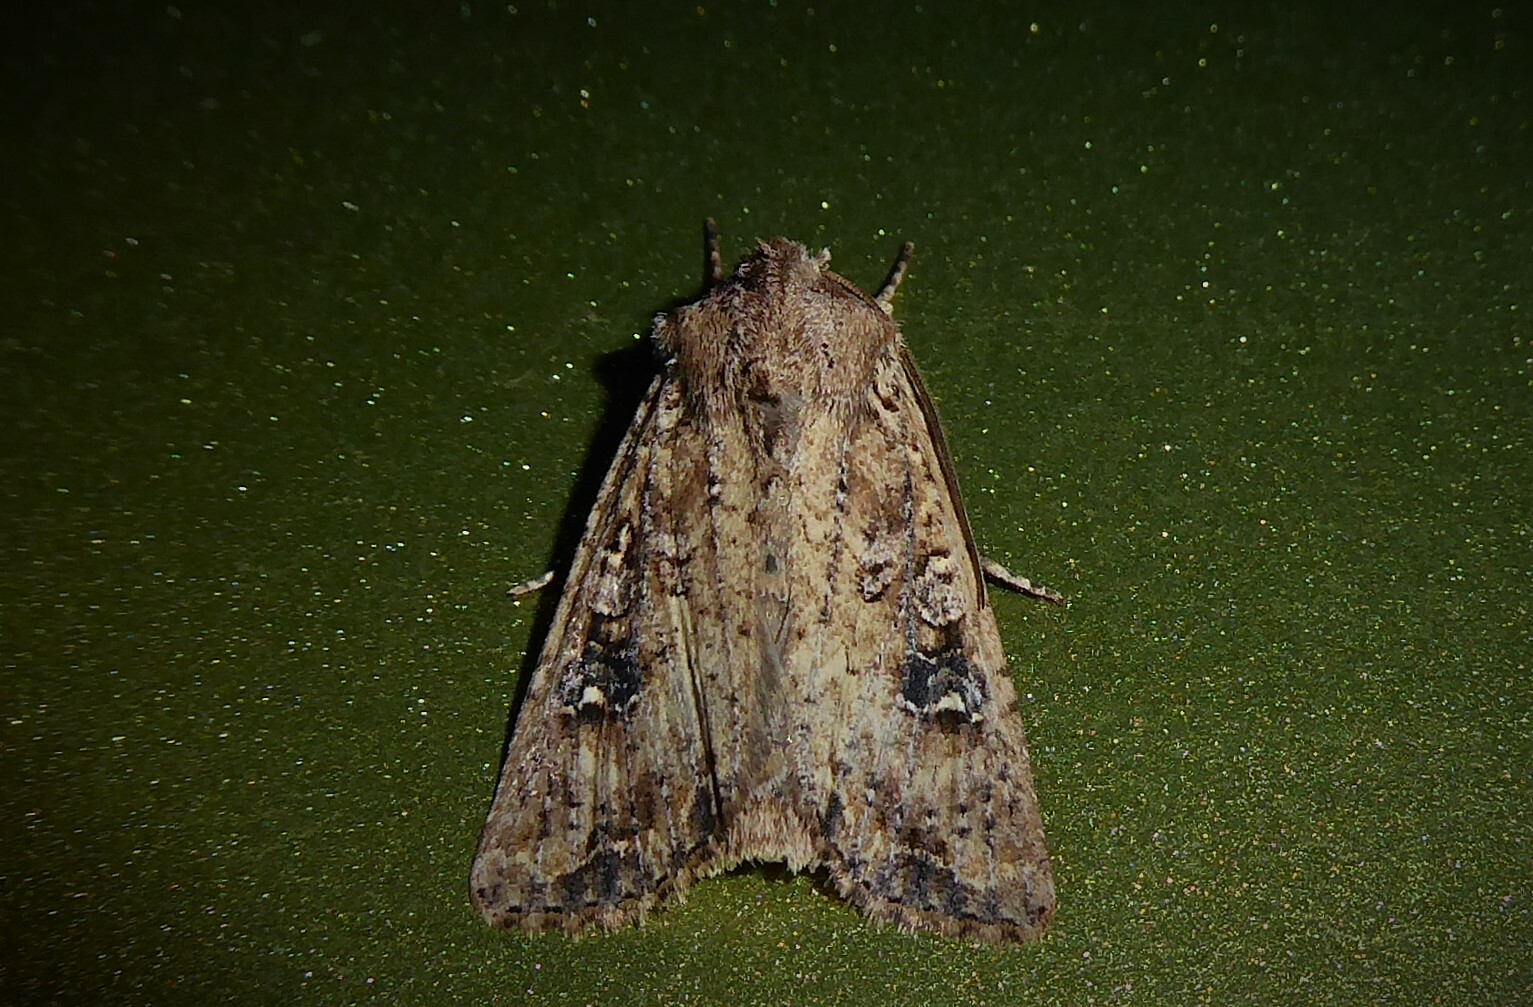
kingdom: Animalia
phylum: Arthropoda
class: Insecta
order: Lepidoptera
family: Noctuidae
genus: Ichneutica
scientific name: Ichneutica morosa
